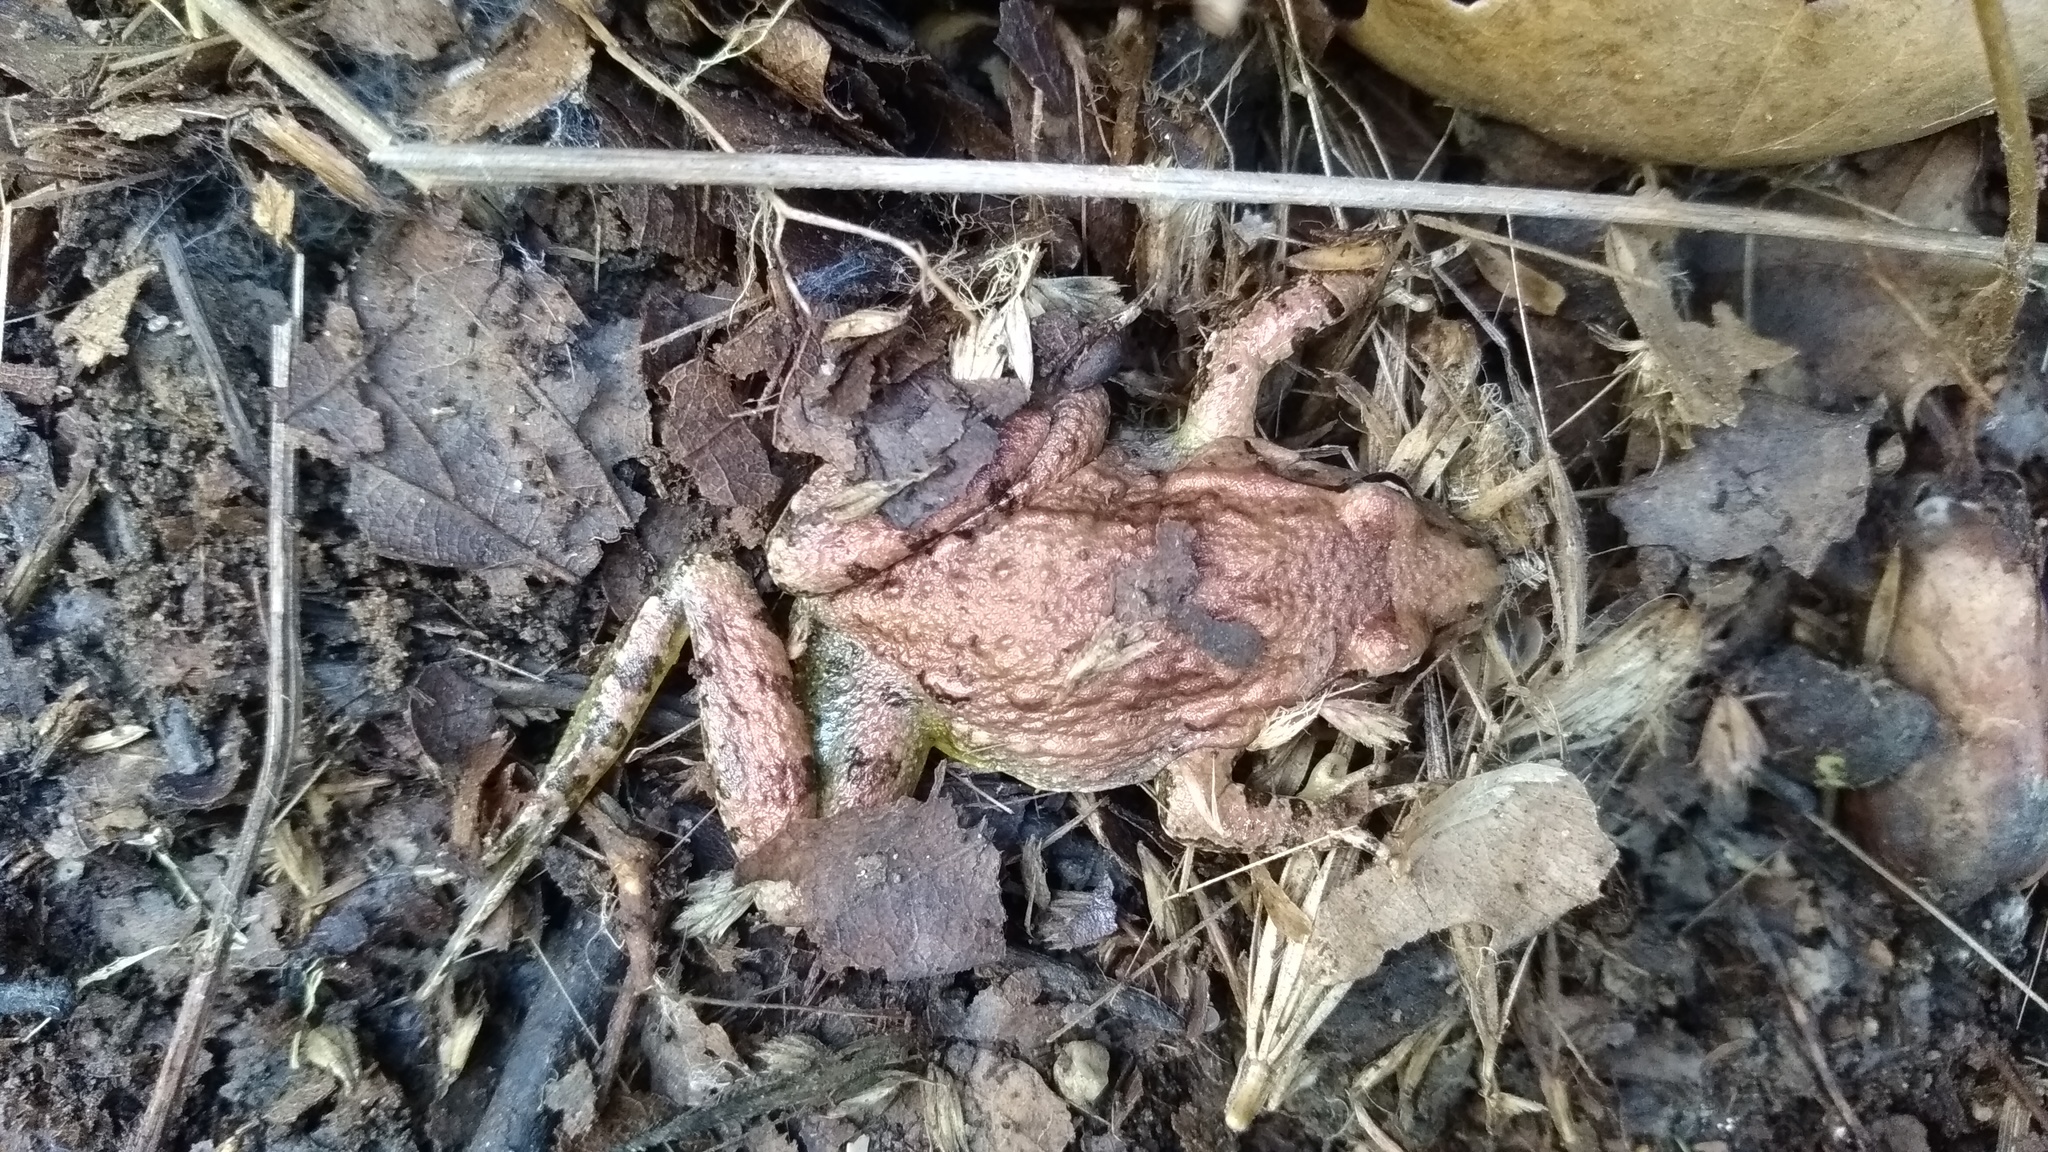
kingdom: Animalia
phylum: Chordata
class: Amphibia
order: Anura
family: Alytidae
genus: Discoglossus
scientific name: Discoglossus pictus
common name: Painted frog
